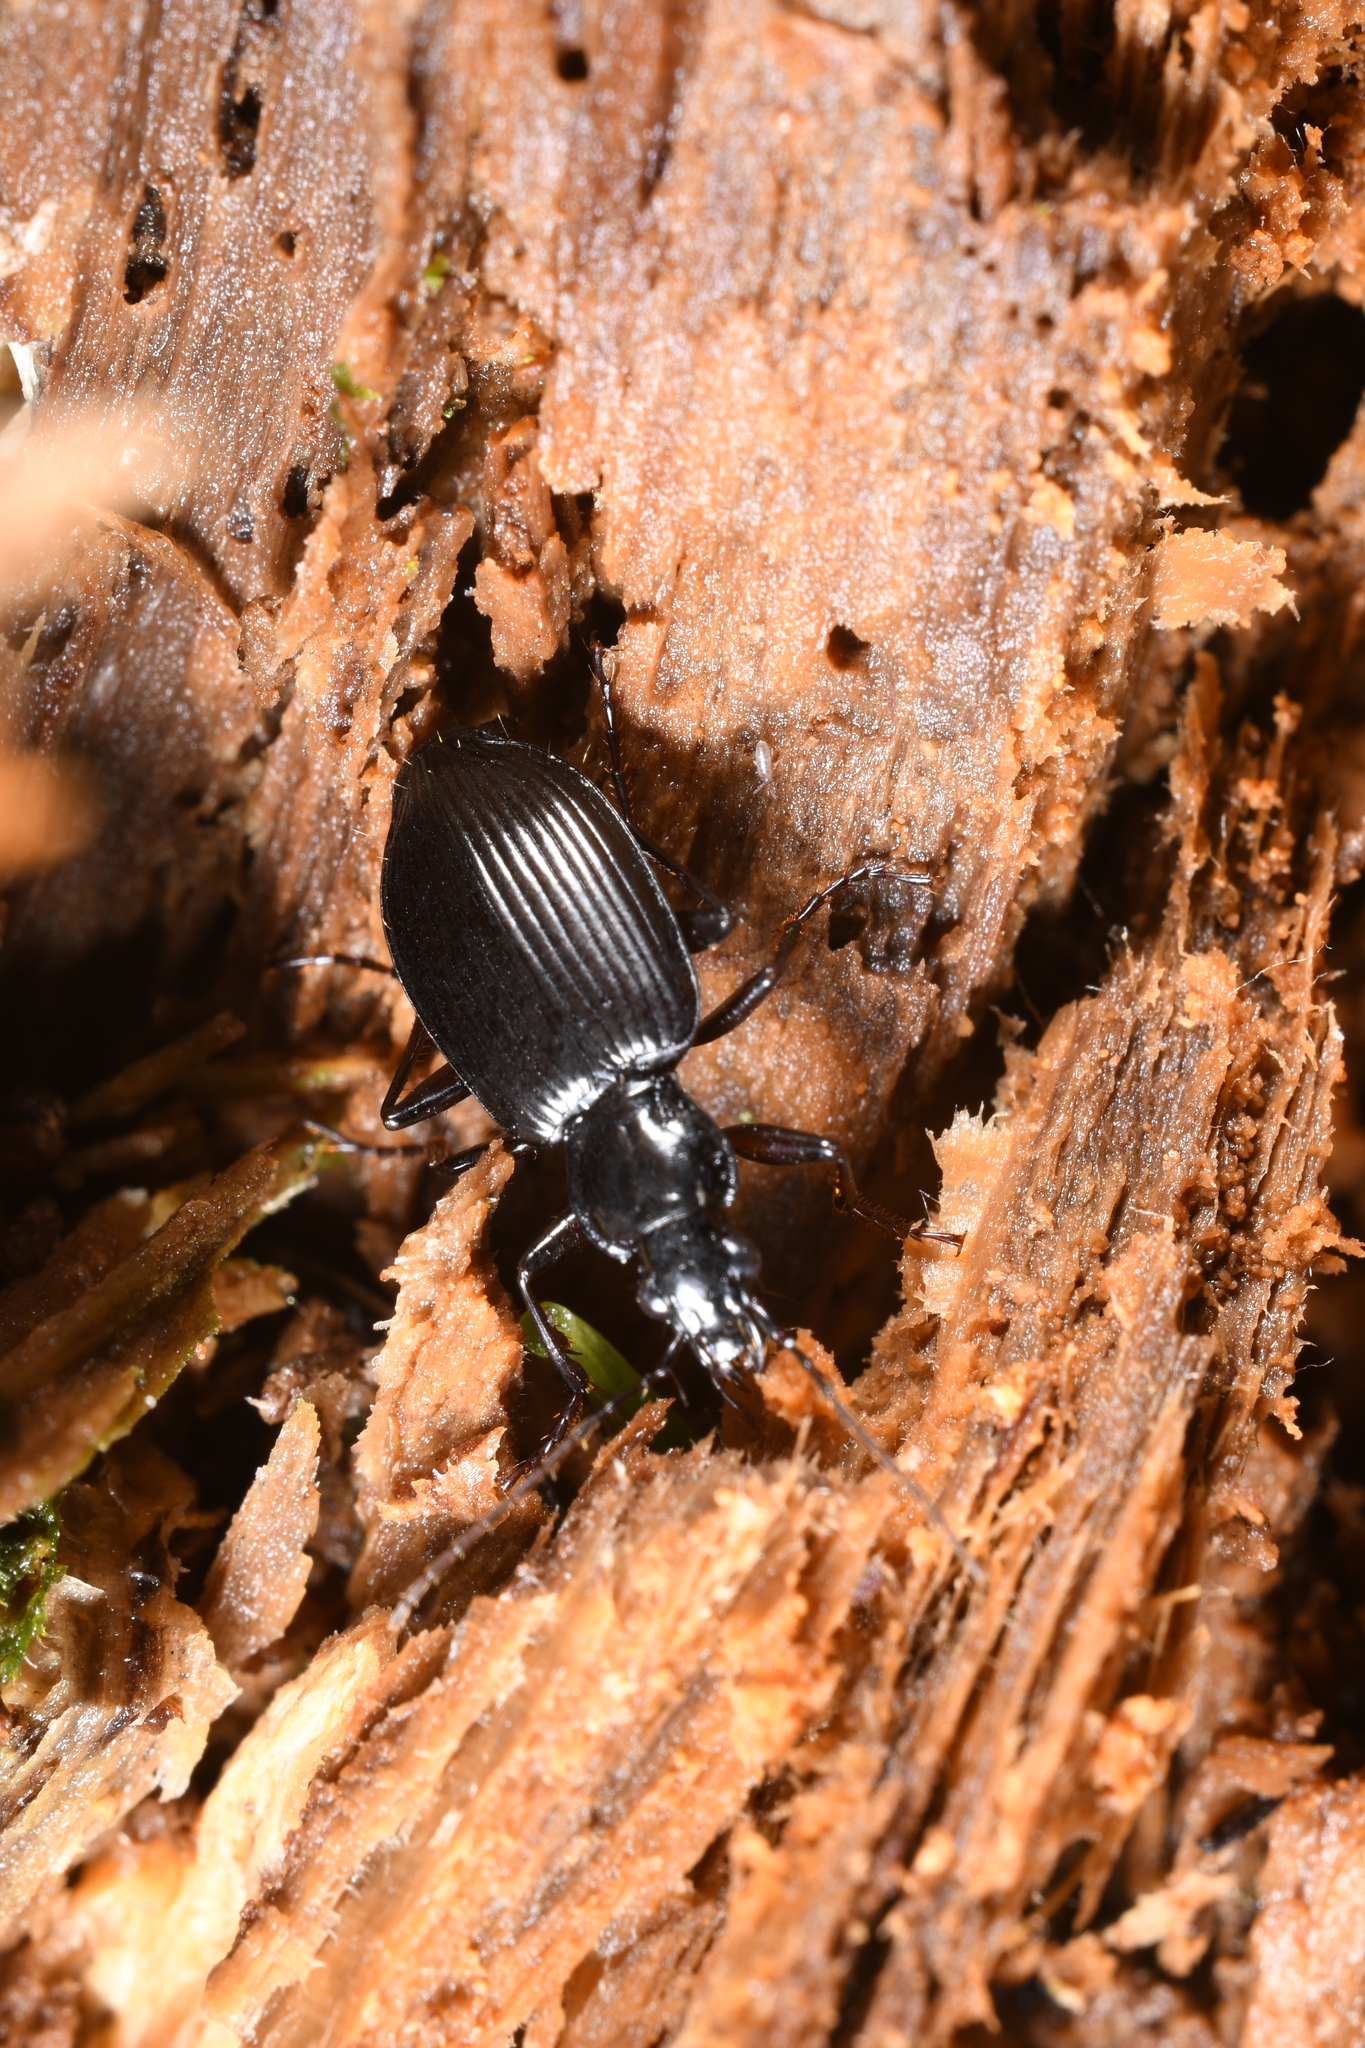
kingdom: Animalia
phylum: Arthropoda
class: Insecta
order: Coleoptera
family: Carabidae
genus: Platynus
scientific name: Platynus assimilis
